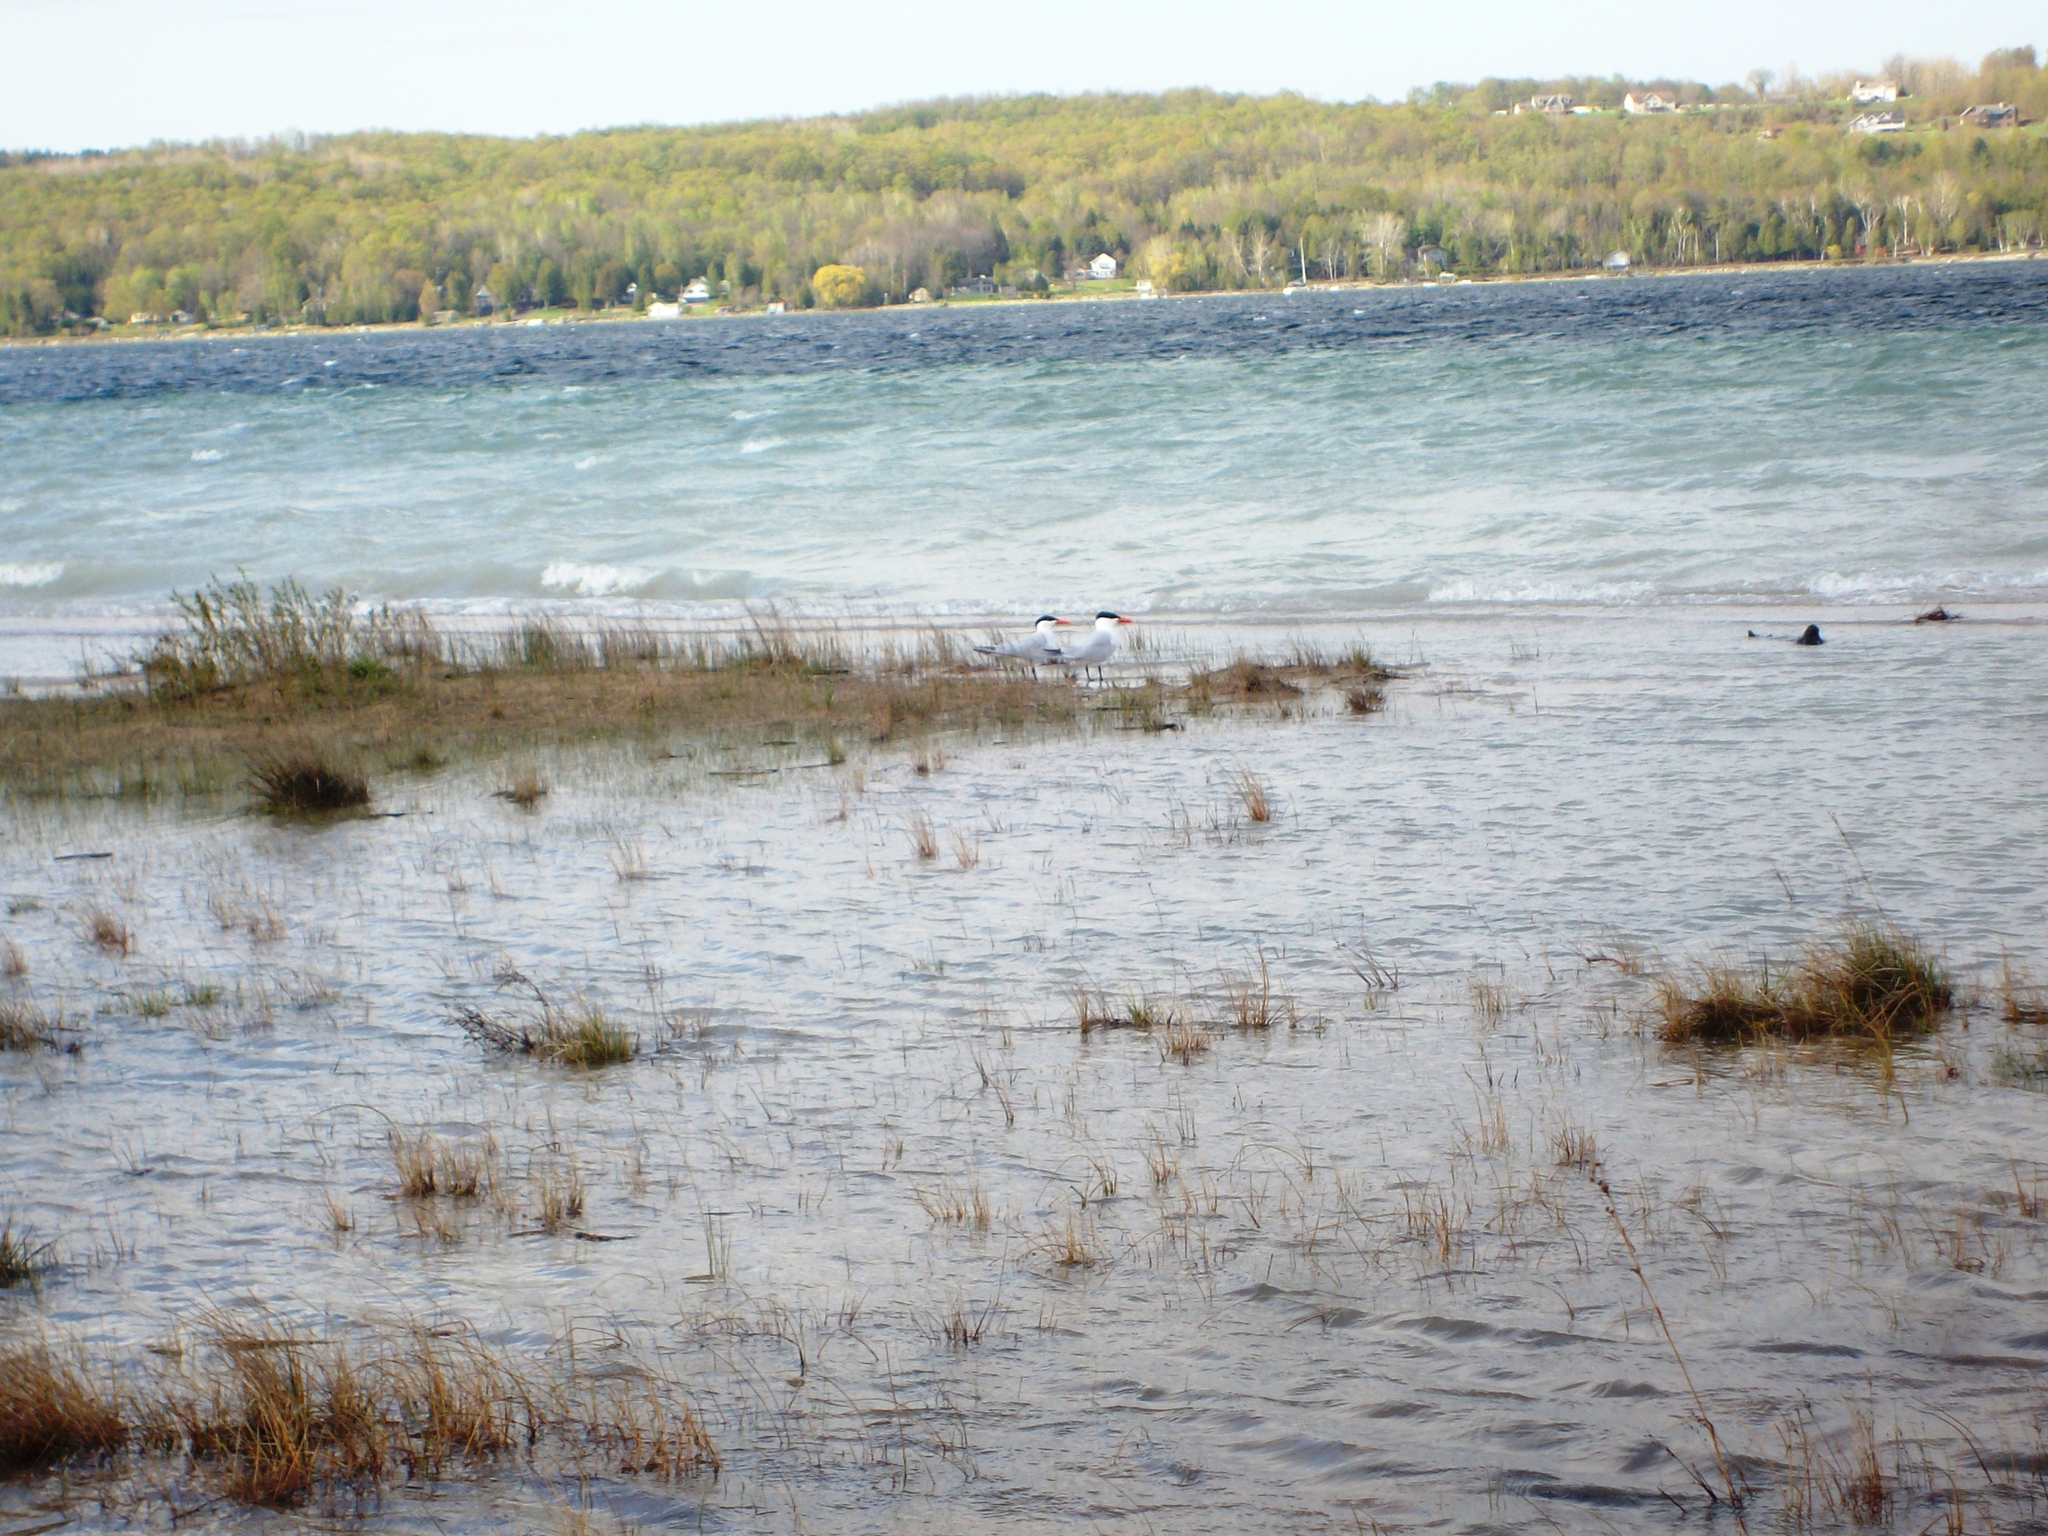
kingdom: Animalia
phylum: Chordata
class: Aves
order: Charadriiformes
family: Laridae
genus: Hydroprogne
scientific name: Hydroprogne caspia
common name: Caspian tern
